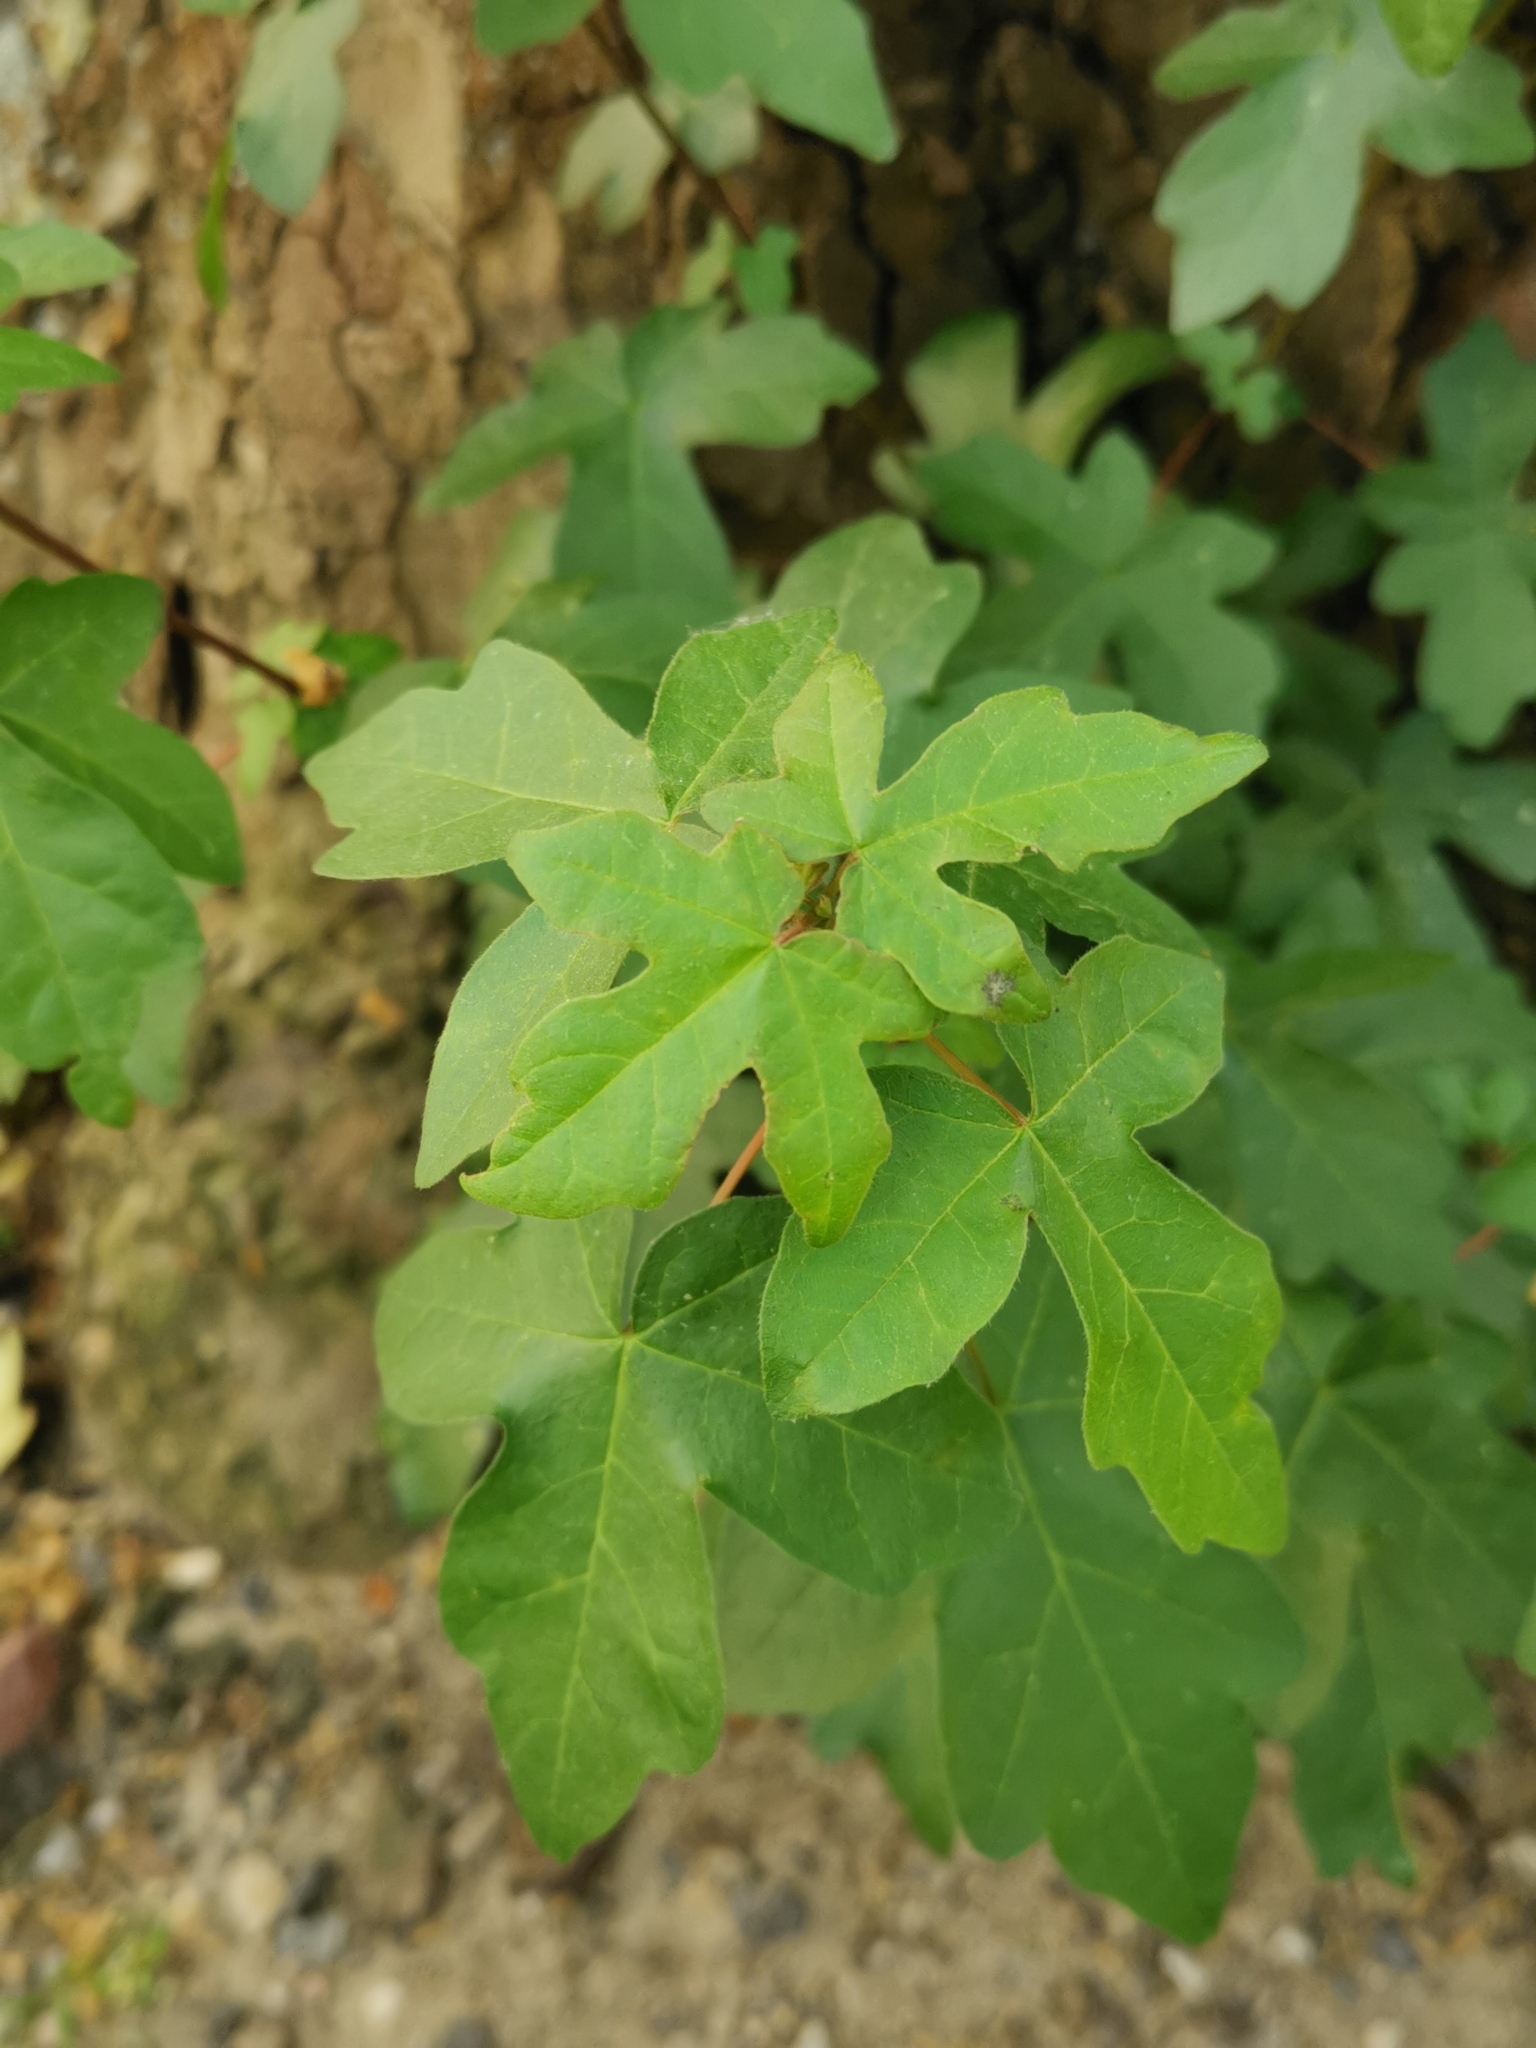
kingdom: Plantae
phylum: Tracheophyta
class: Magnoliopsida
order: Sapindales
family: Sapindaceae
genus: Acer
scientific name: Acer campestre
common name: Field maple
